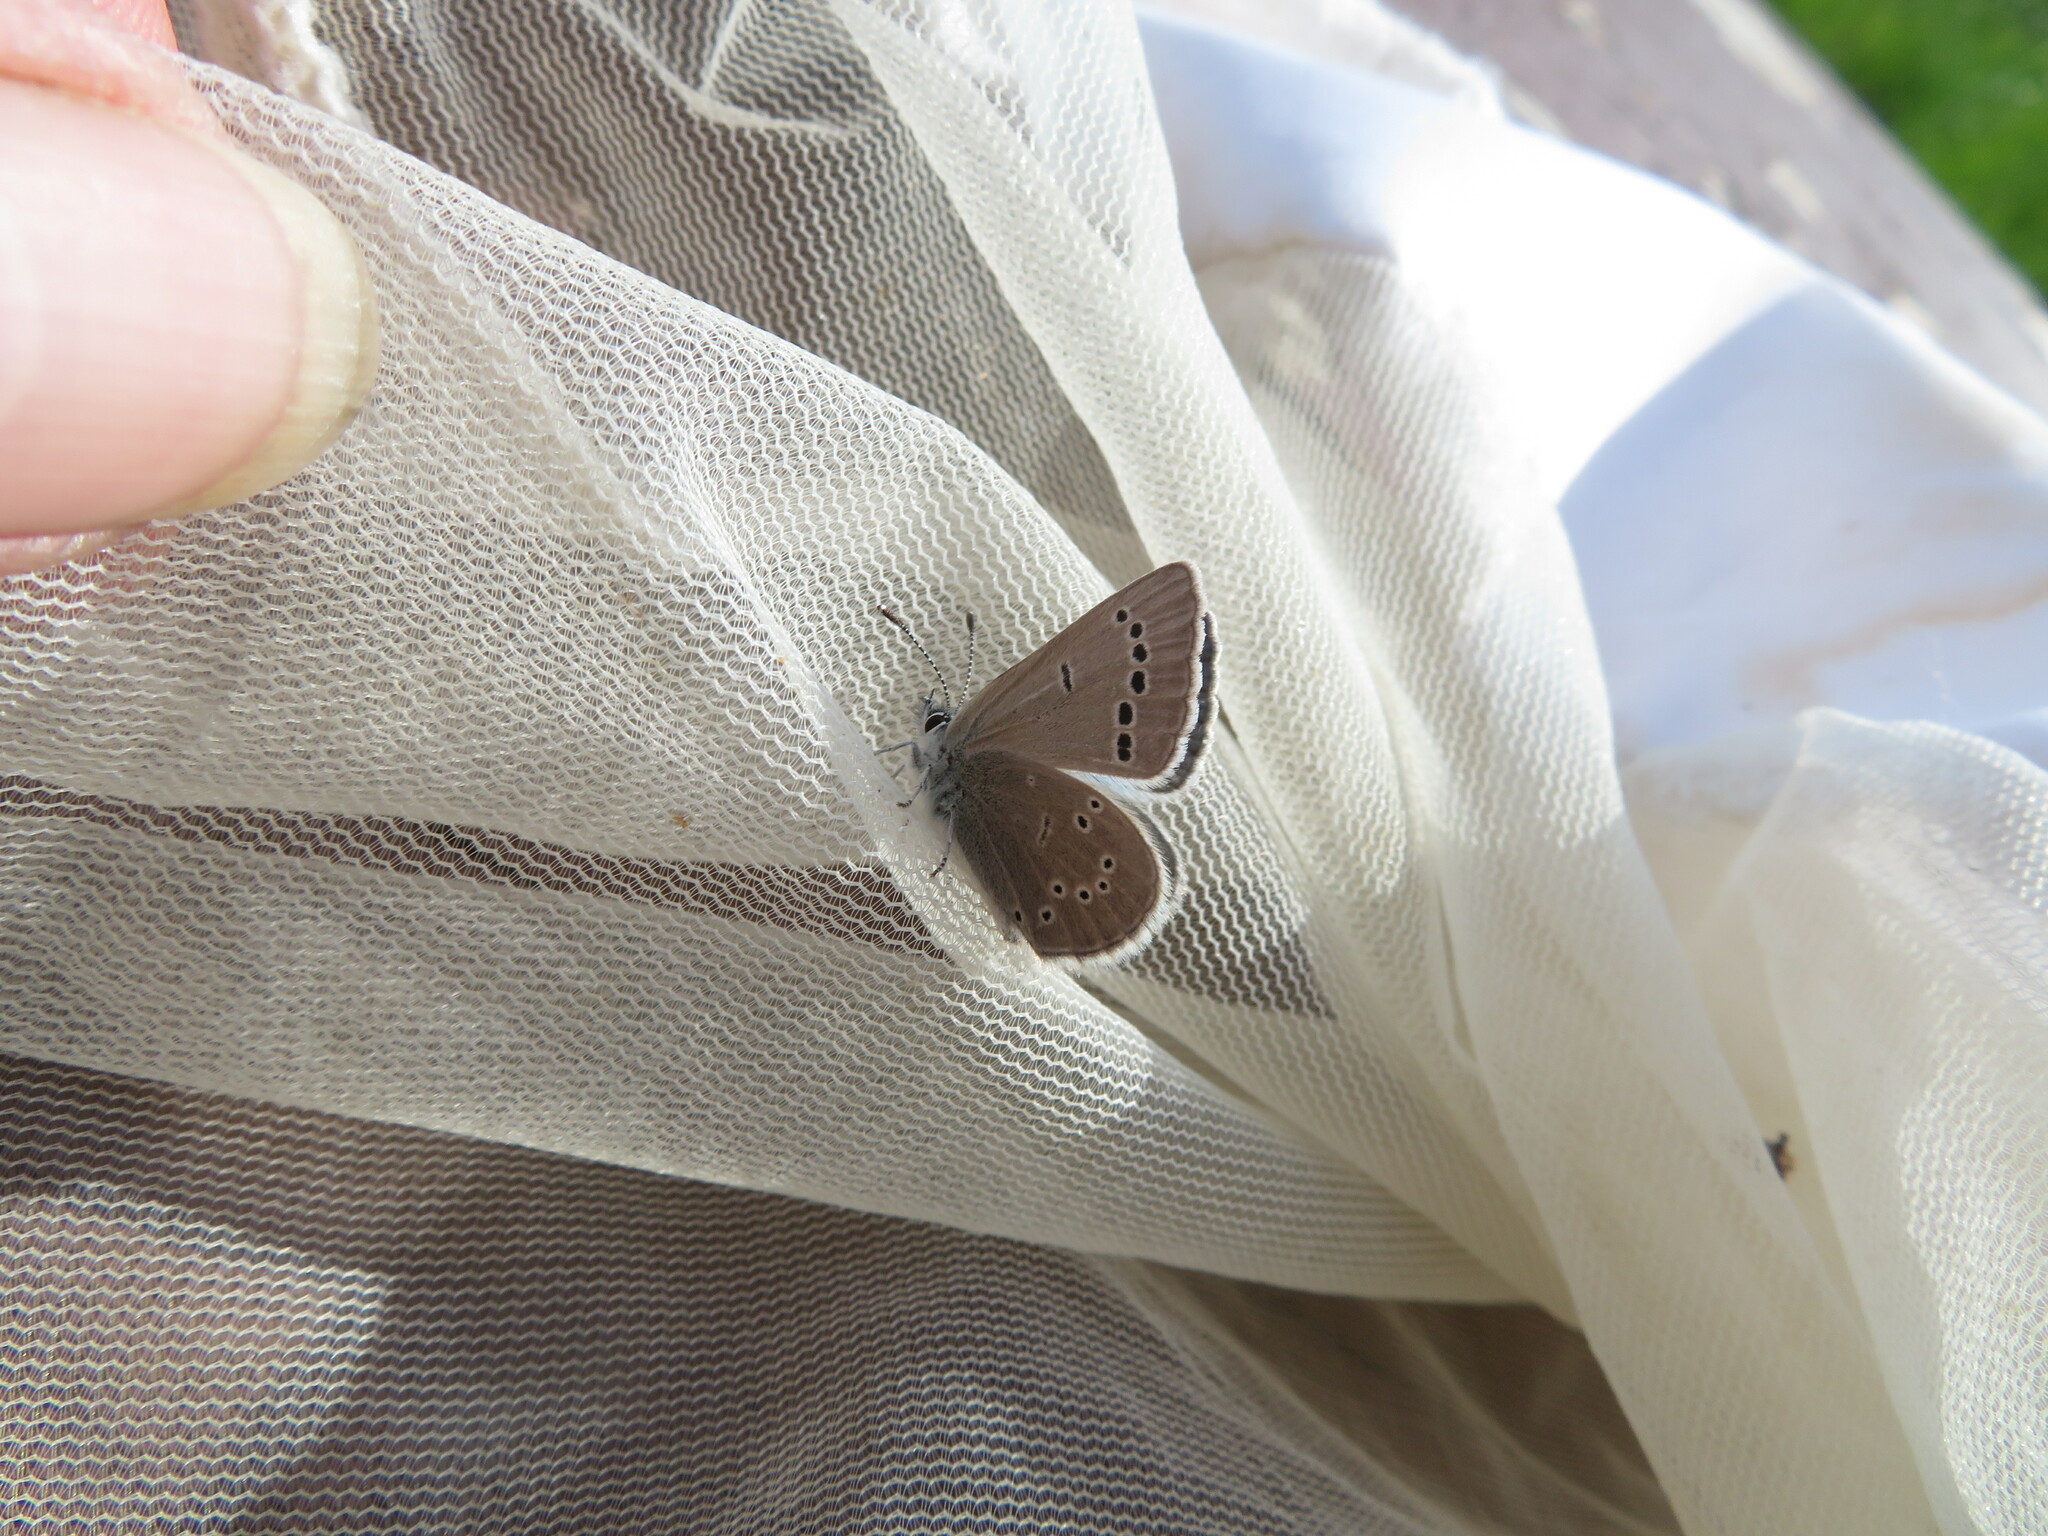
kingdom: Animalia
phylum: Arthropoda
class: Insecta
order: Lepidoptera
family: Lycaenidae
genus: Glaucopsyche
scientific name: Glaucopsyche lygdamus
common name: Silvery blue
